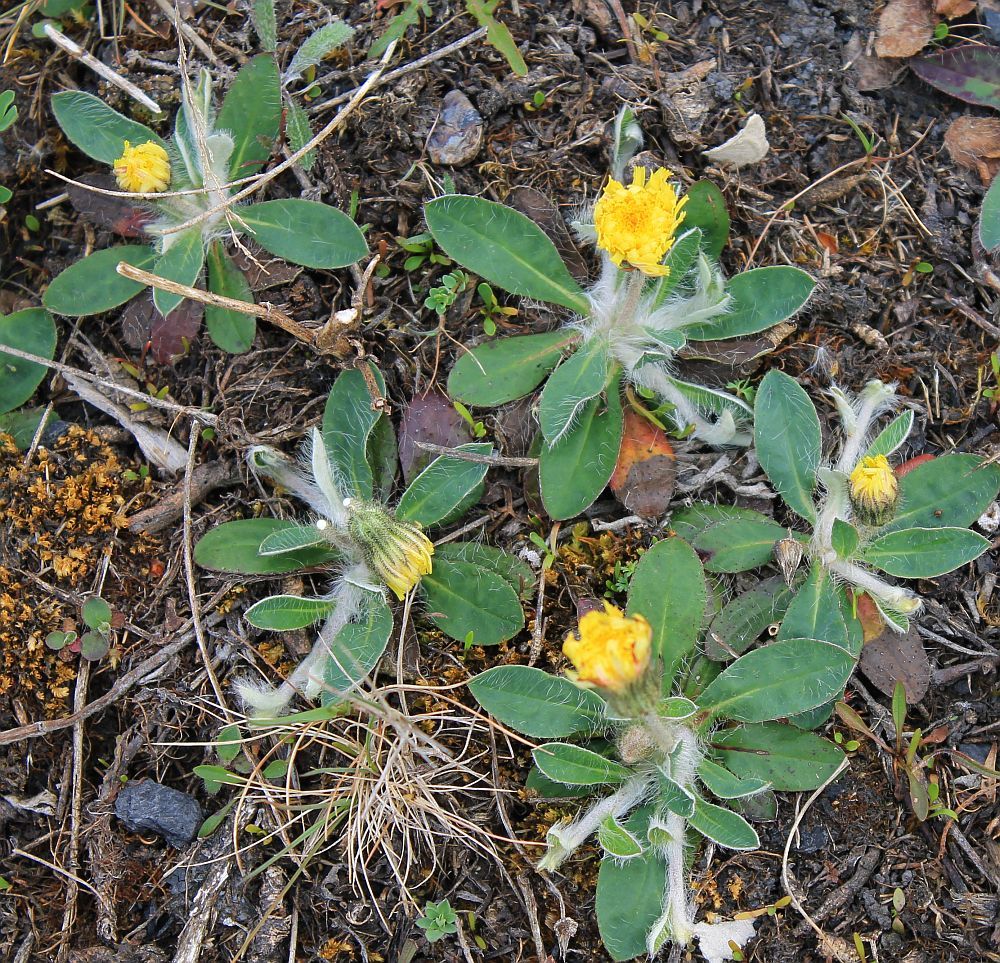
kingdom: Plantae
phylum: Tracheophyta
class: Magnoliopsida
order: Asterales
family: Asteraceae
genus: Pilosella
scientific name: Pilosella officinarum
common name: Mouse-ear hawkweed
